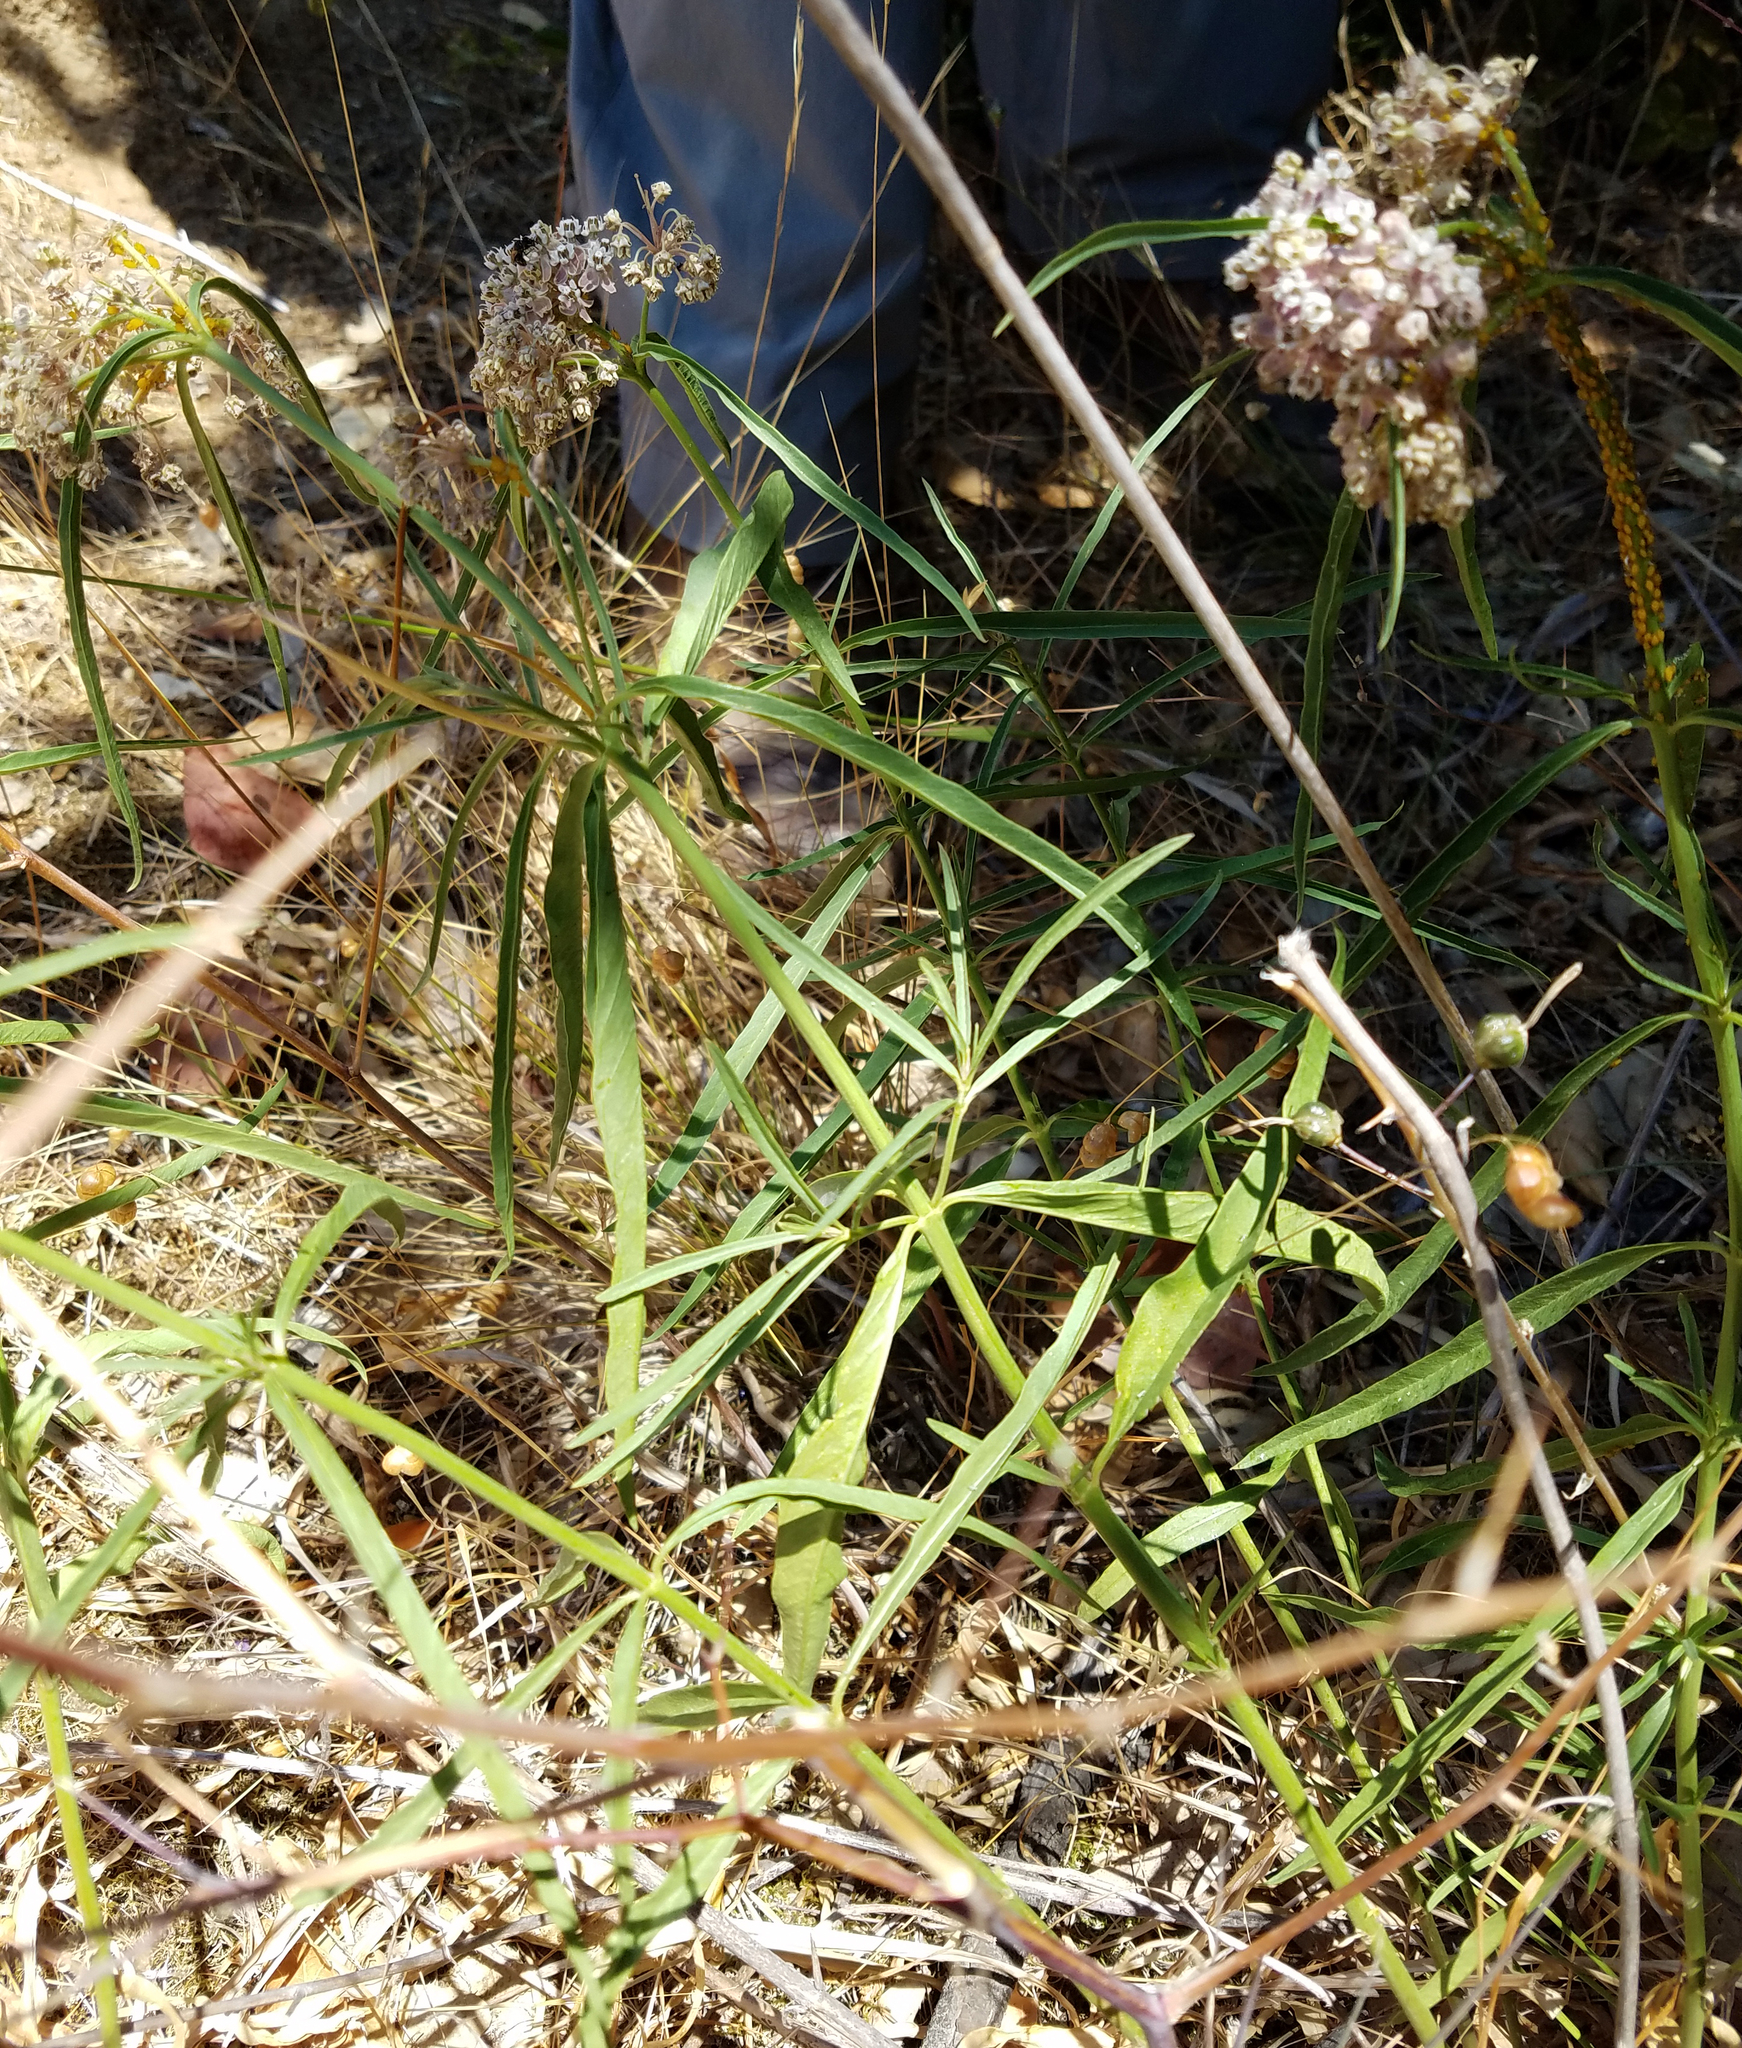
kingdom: Plantae
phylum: Tracheophyta
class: Magnoliopsida
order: Gentianales
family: Apocynaceae
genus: Asclepias
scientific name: Asclepias fascicularis
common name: Mexican milkweed
